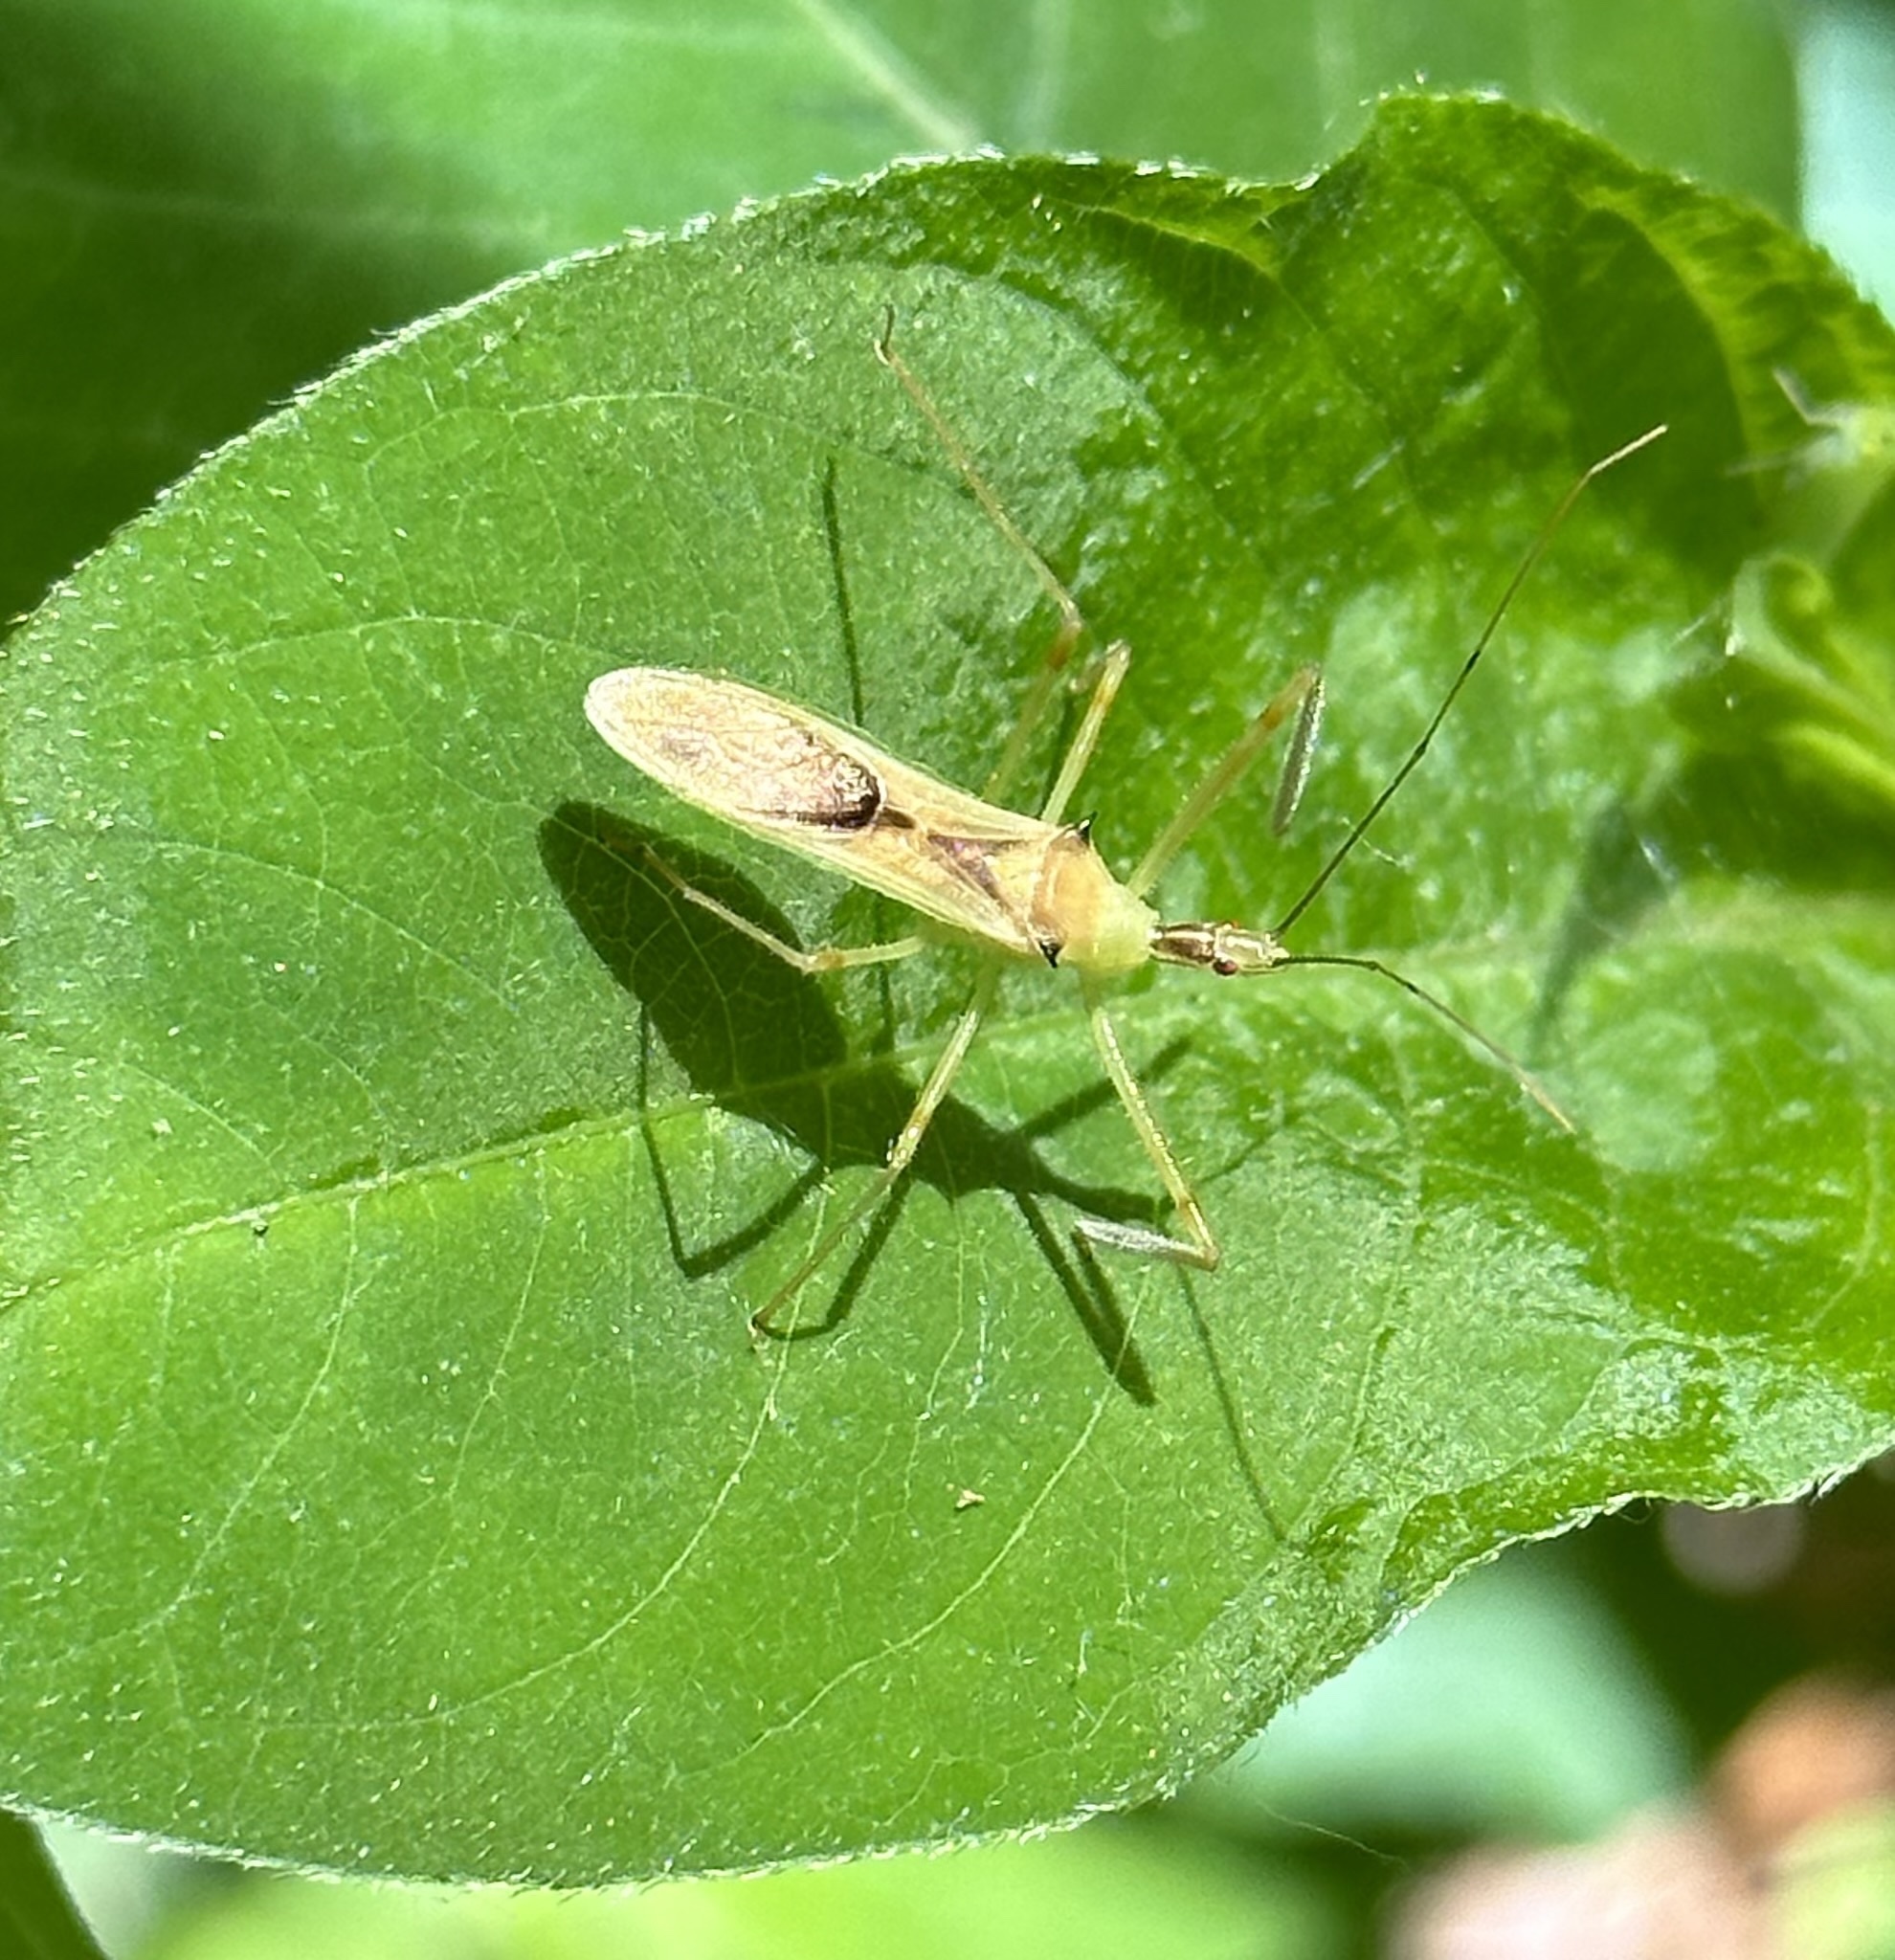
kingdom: Animalia
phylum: Arthropoda
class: Insecta
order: Hemiptera
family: Reduviidae
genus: Zelus
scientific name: Zelus luridus
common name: Pale green assassin bug
